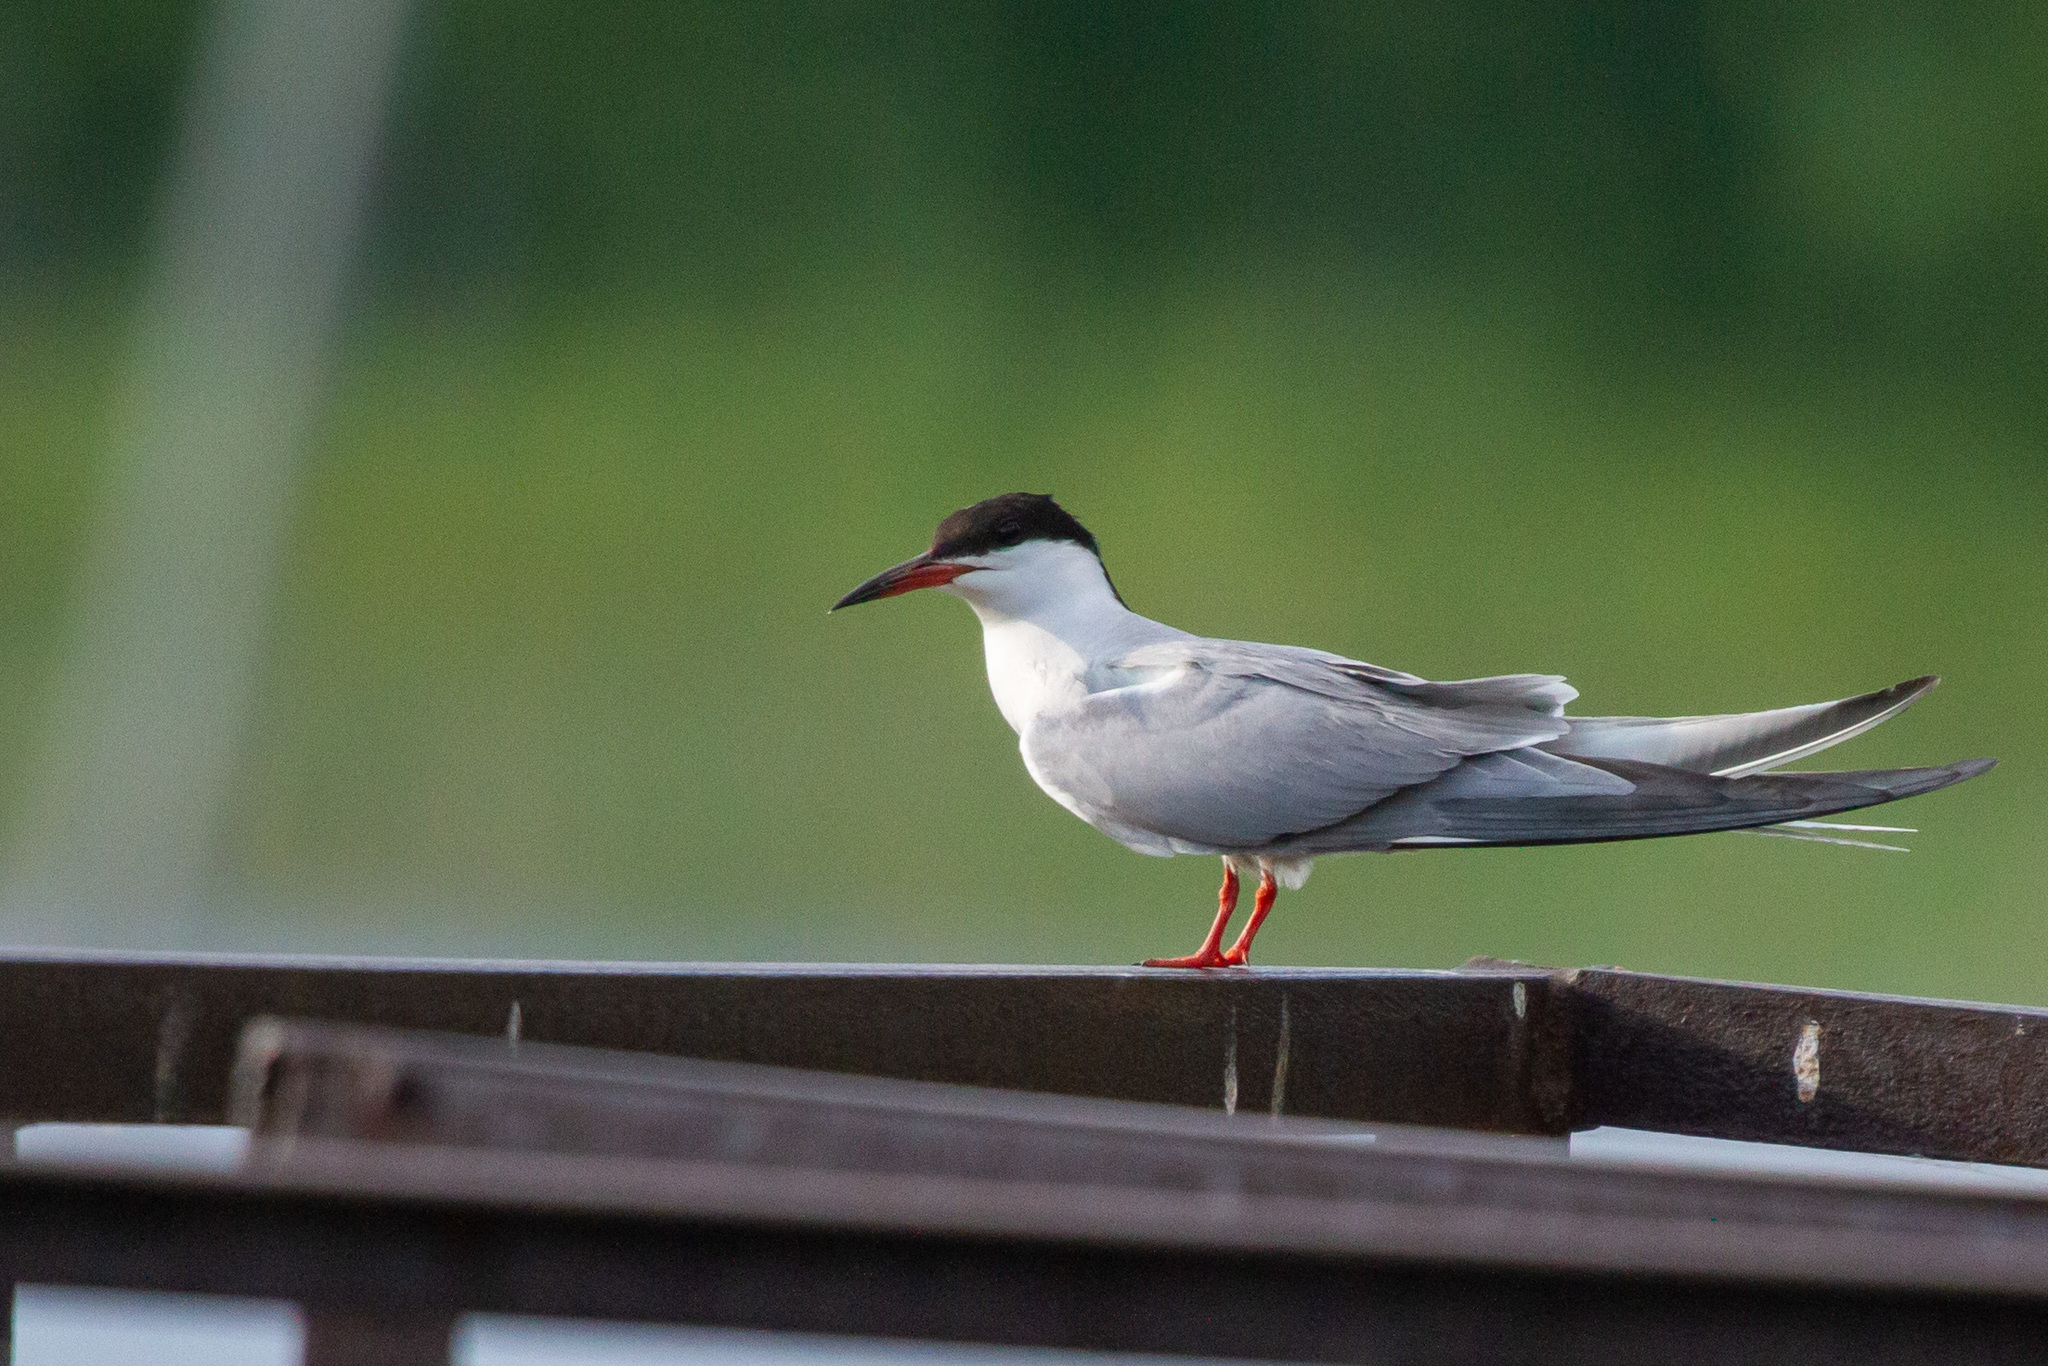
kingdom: Animalia
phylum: Chordata
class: Aves
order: Charadriiformes
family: Laridae
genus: Sterna
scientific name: Sterna hirundo
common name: Common tern
